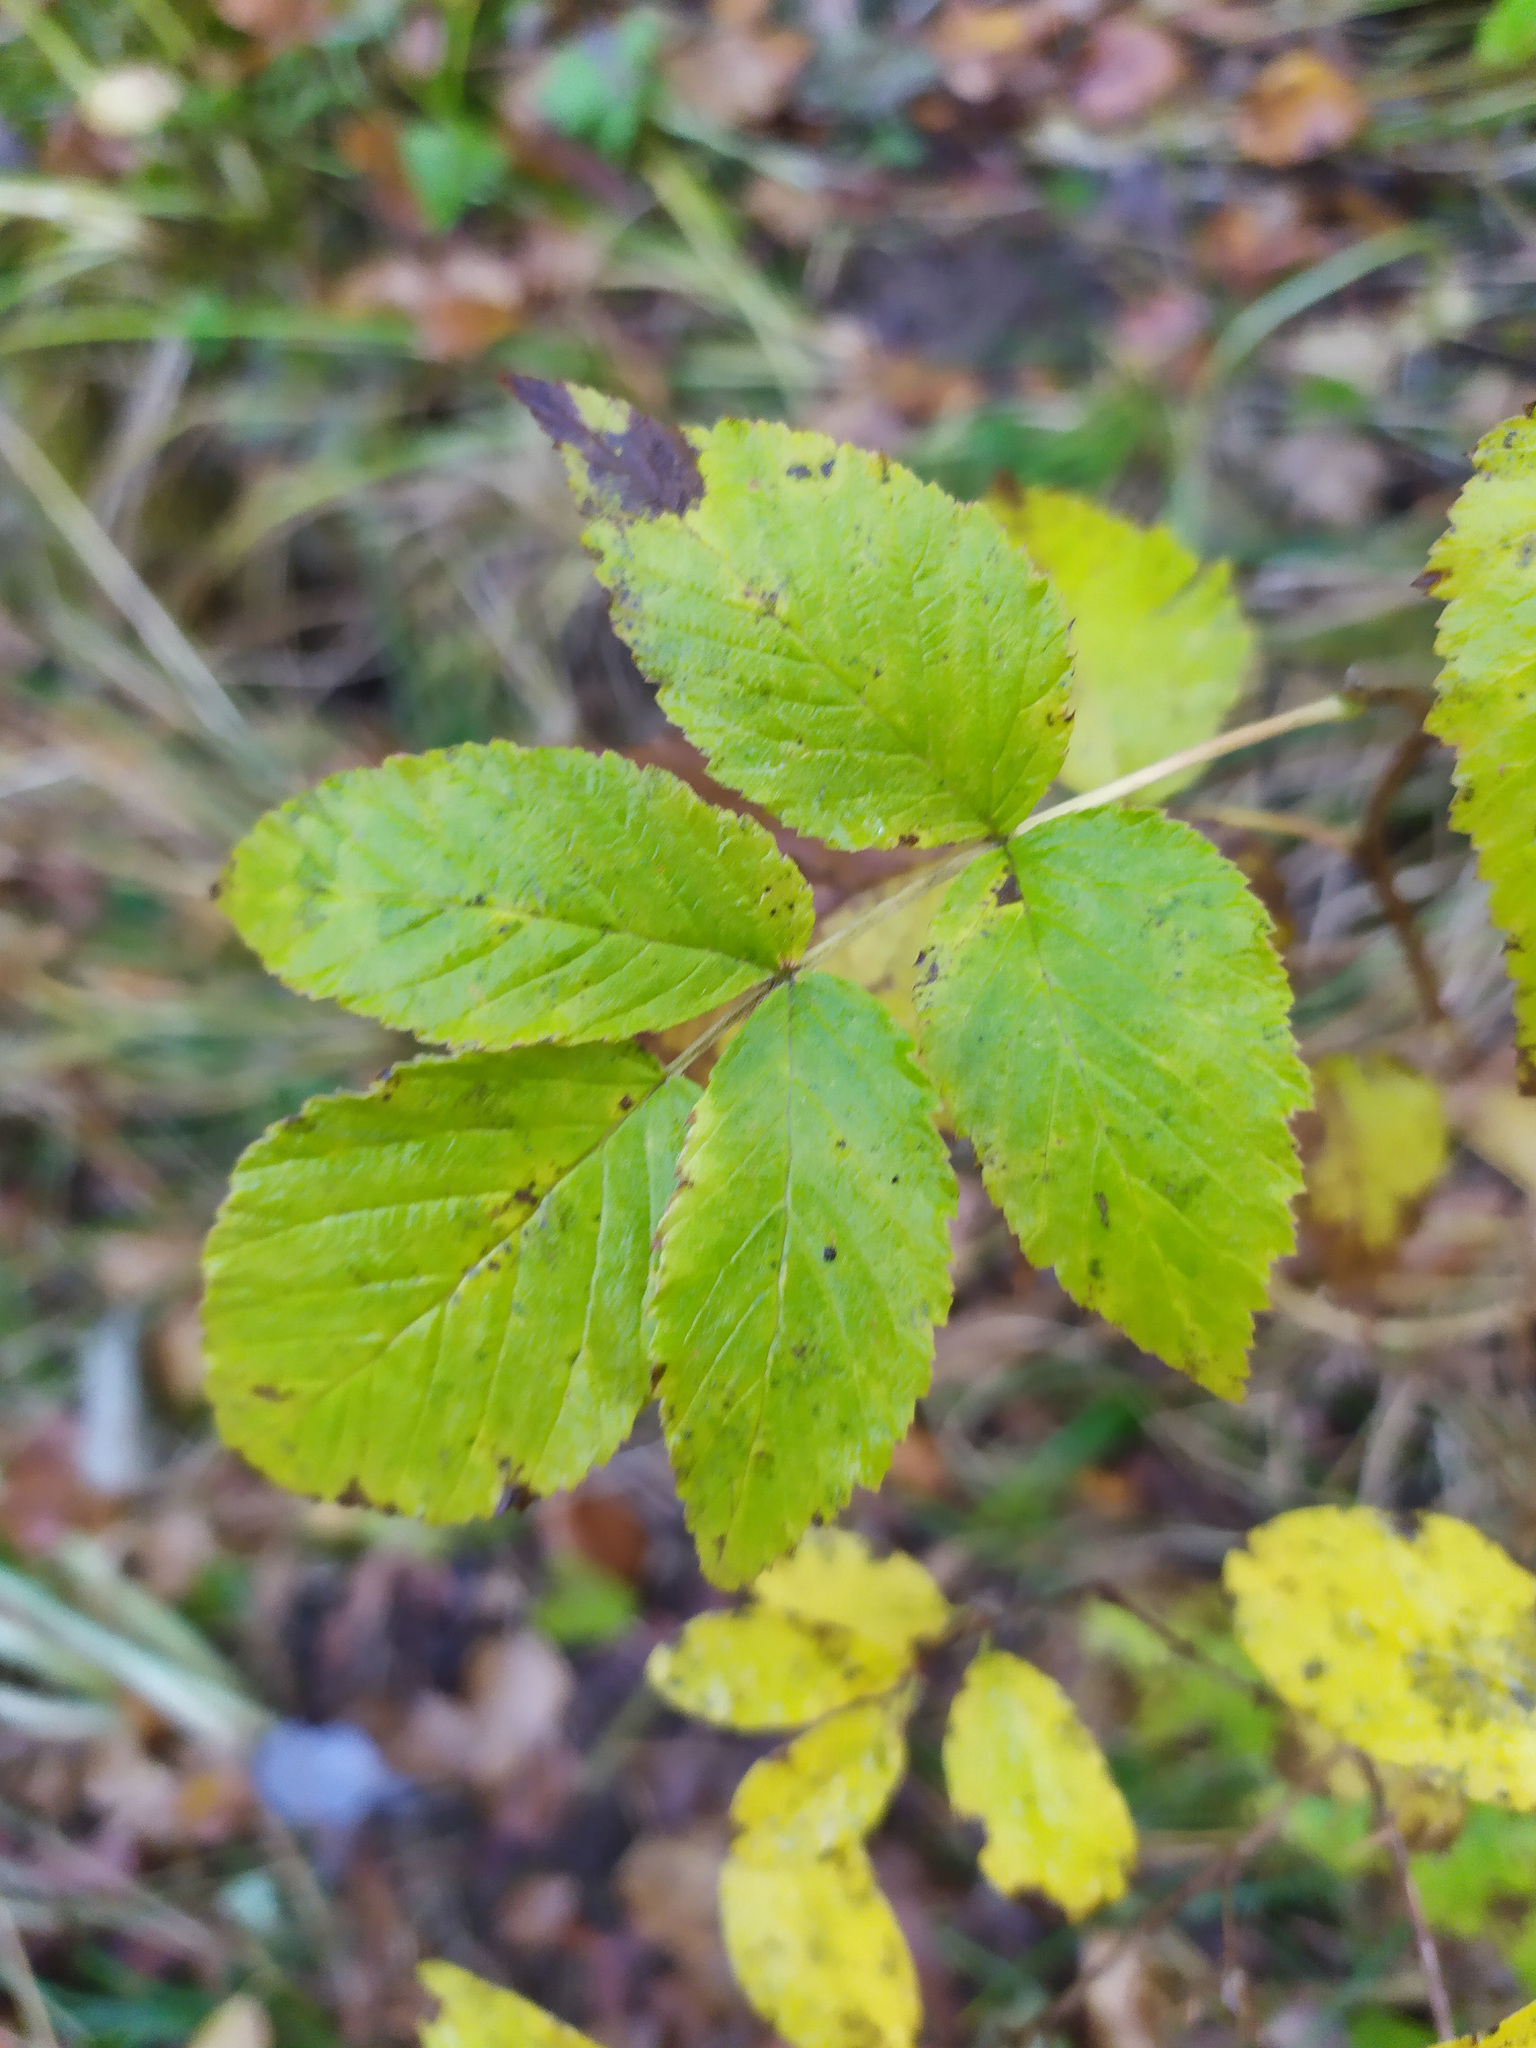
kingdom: Plantae
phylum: Tracheophyta
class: Magnoliopsida
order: Rosales
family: Rosaceae
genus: Rubus
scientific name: Rubus idaeus
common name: Raspberry
